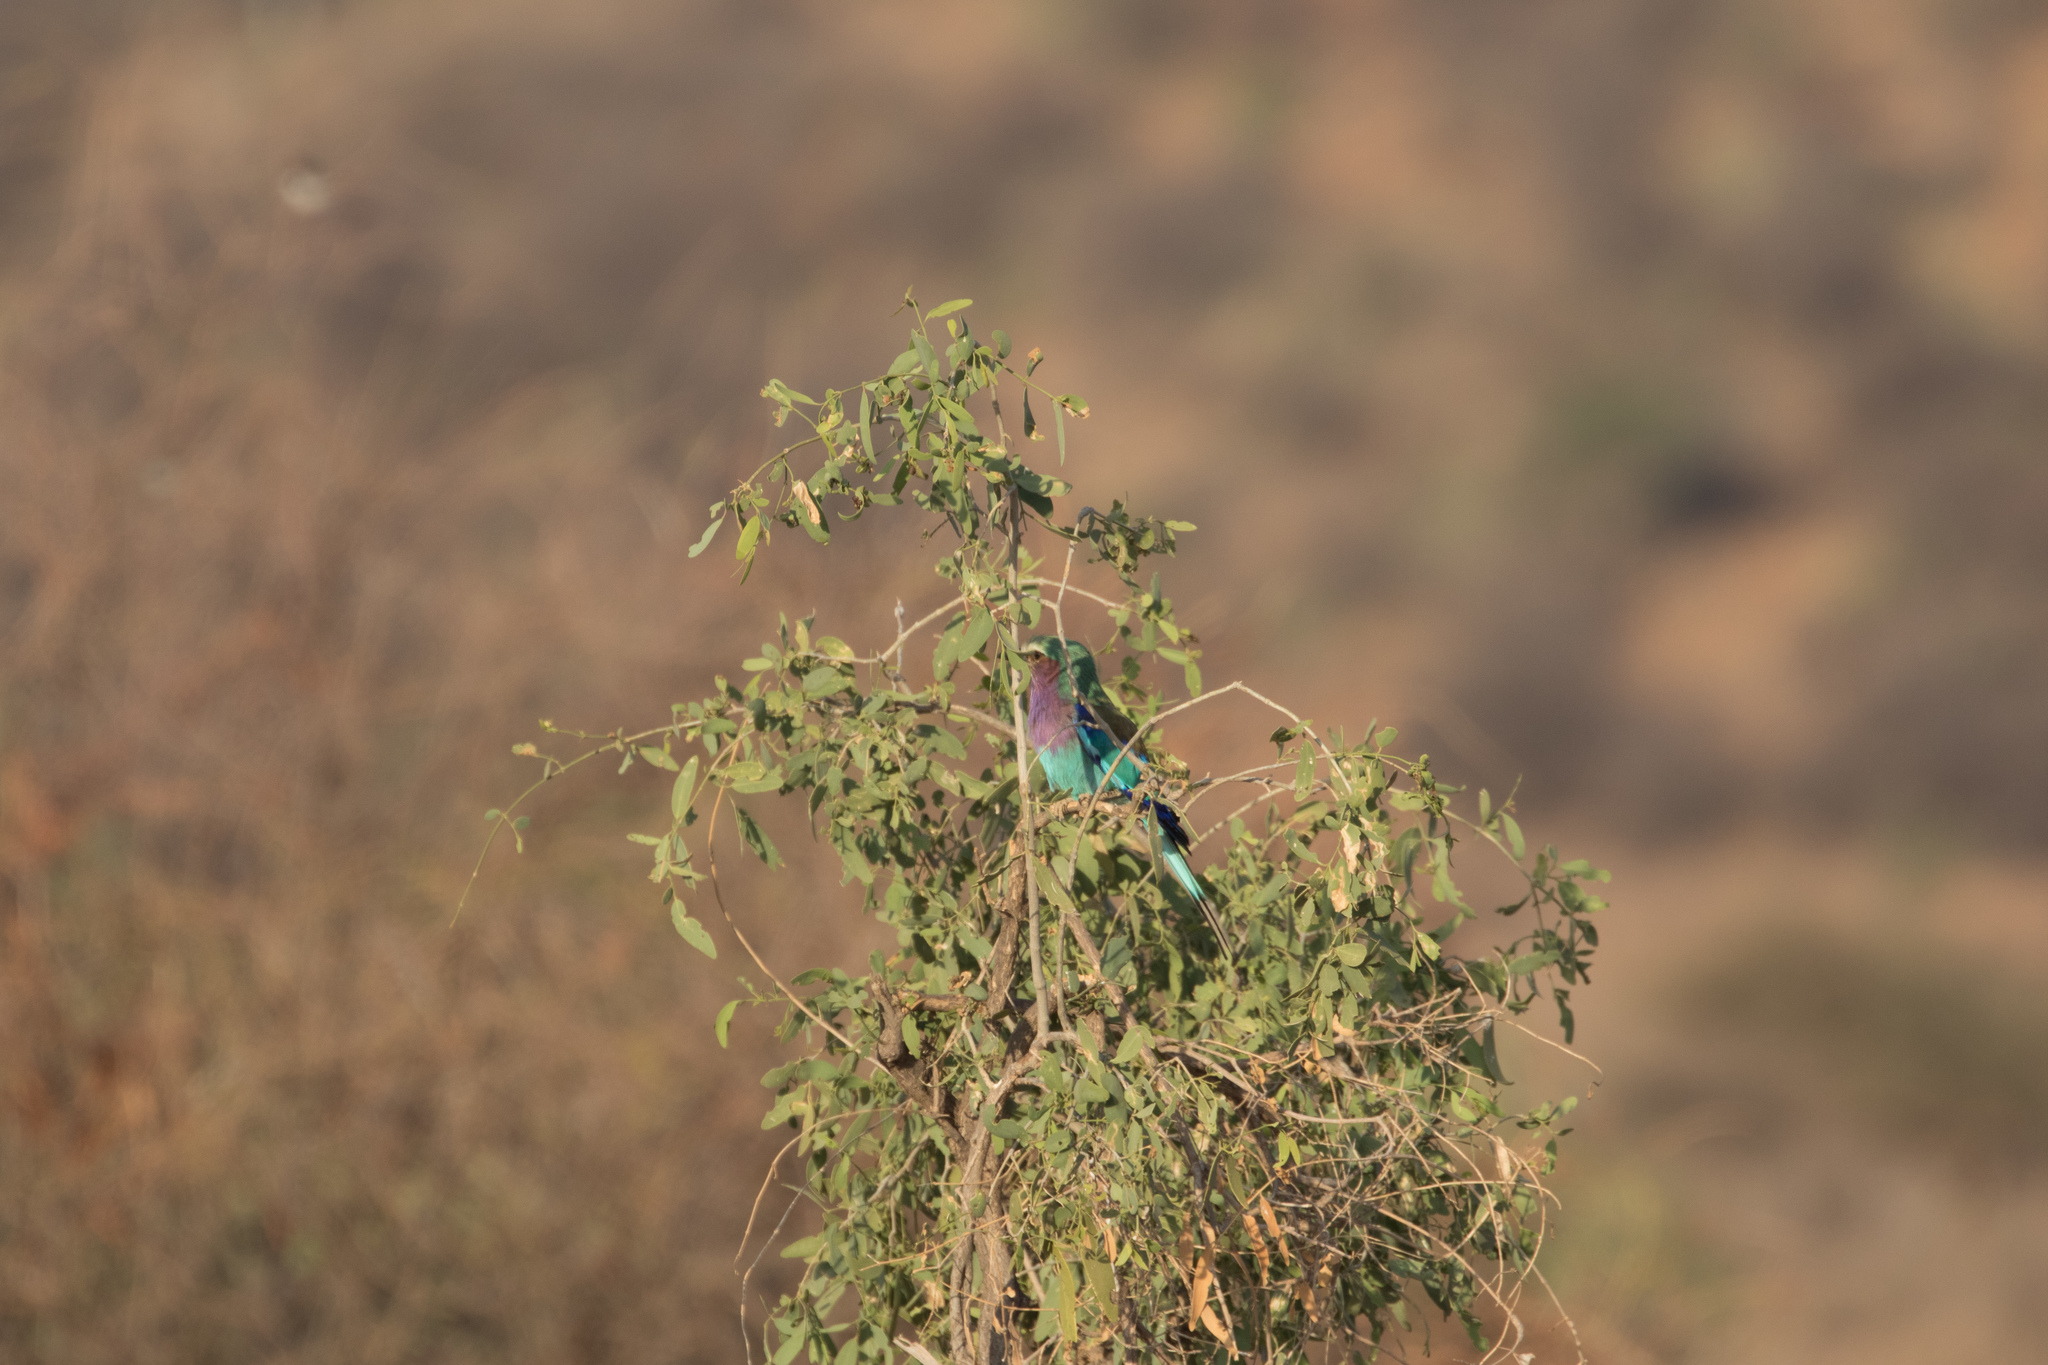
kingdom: Animalia
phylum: Chordata
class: Aves
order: Coraciiformes
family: Coraciidae
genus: Coracias
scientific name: Coracias caudatus
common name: Lilac-breasted roller
